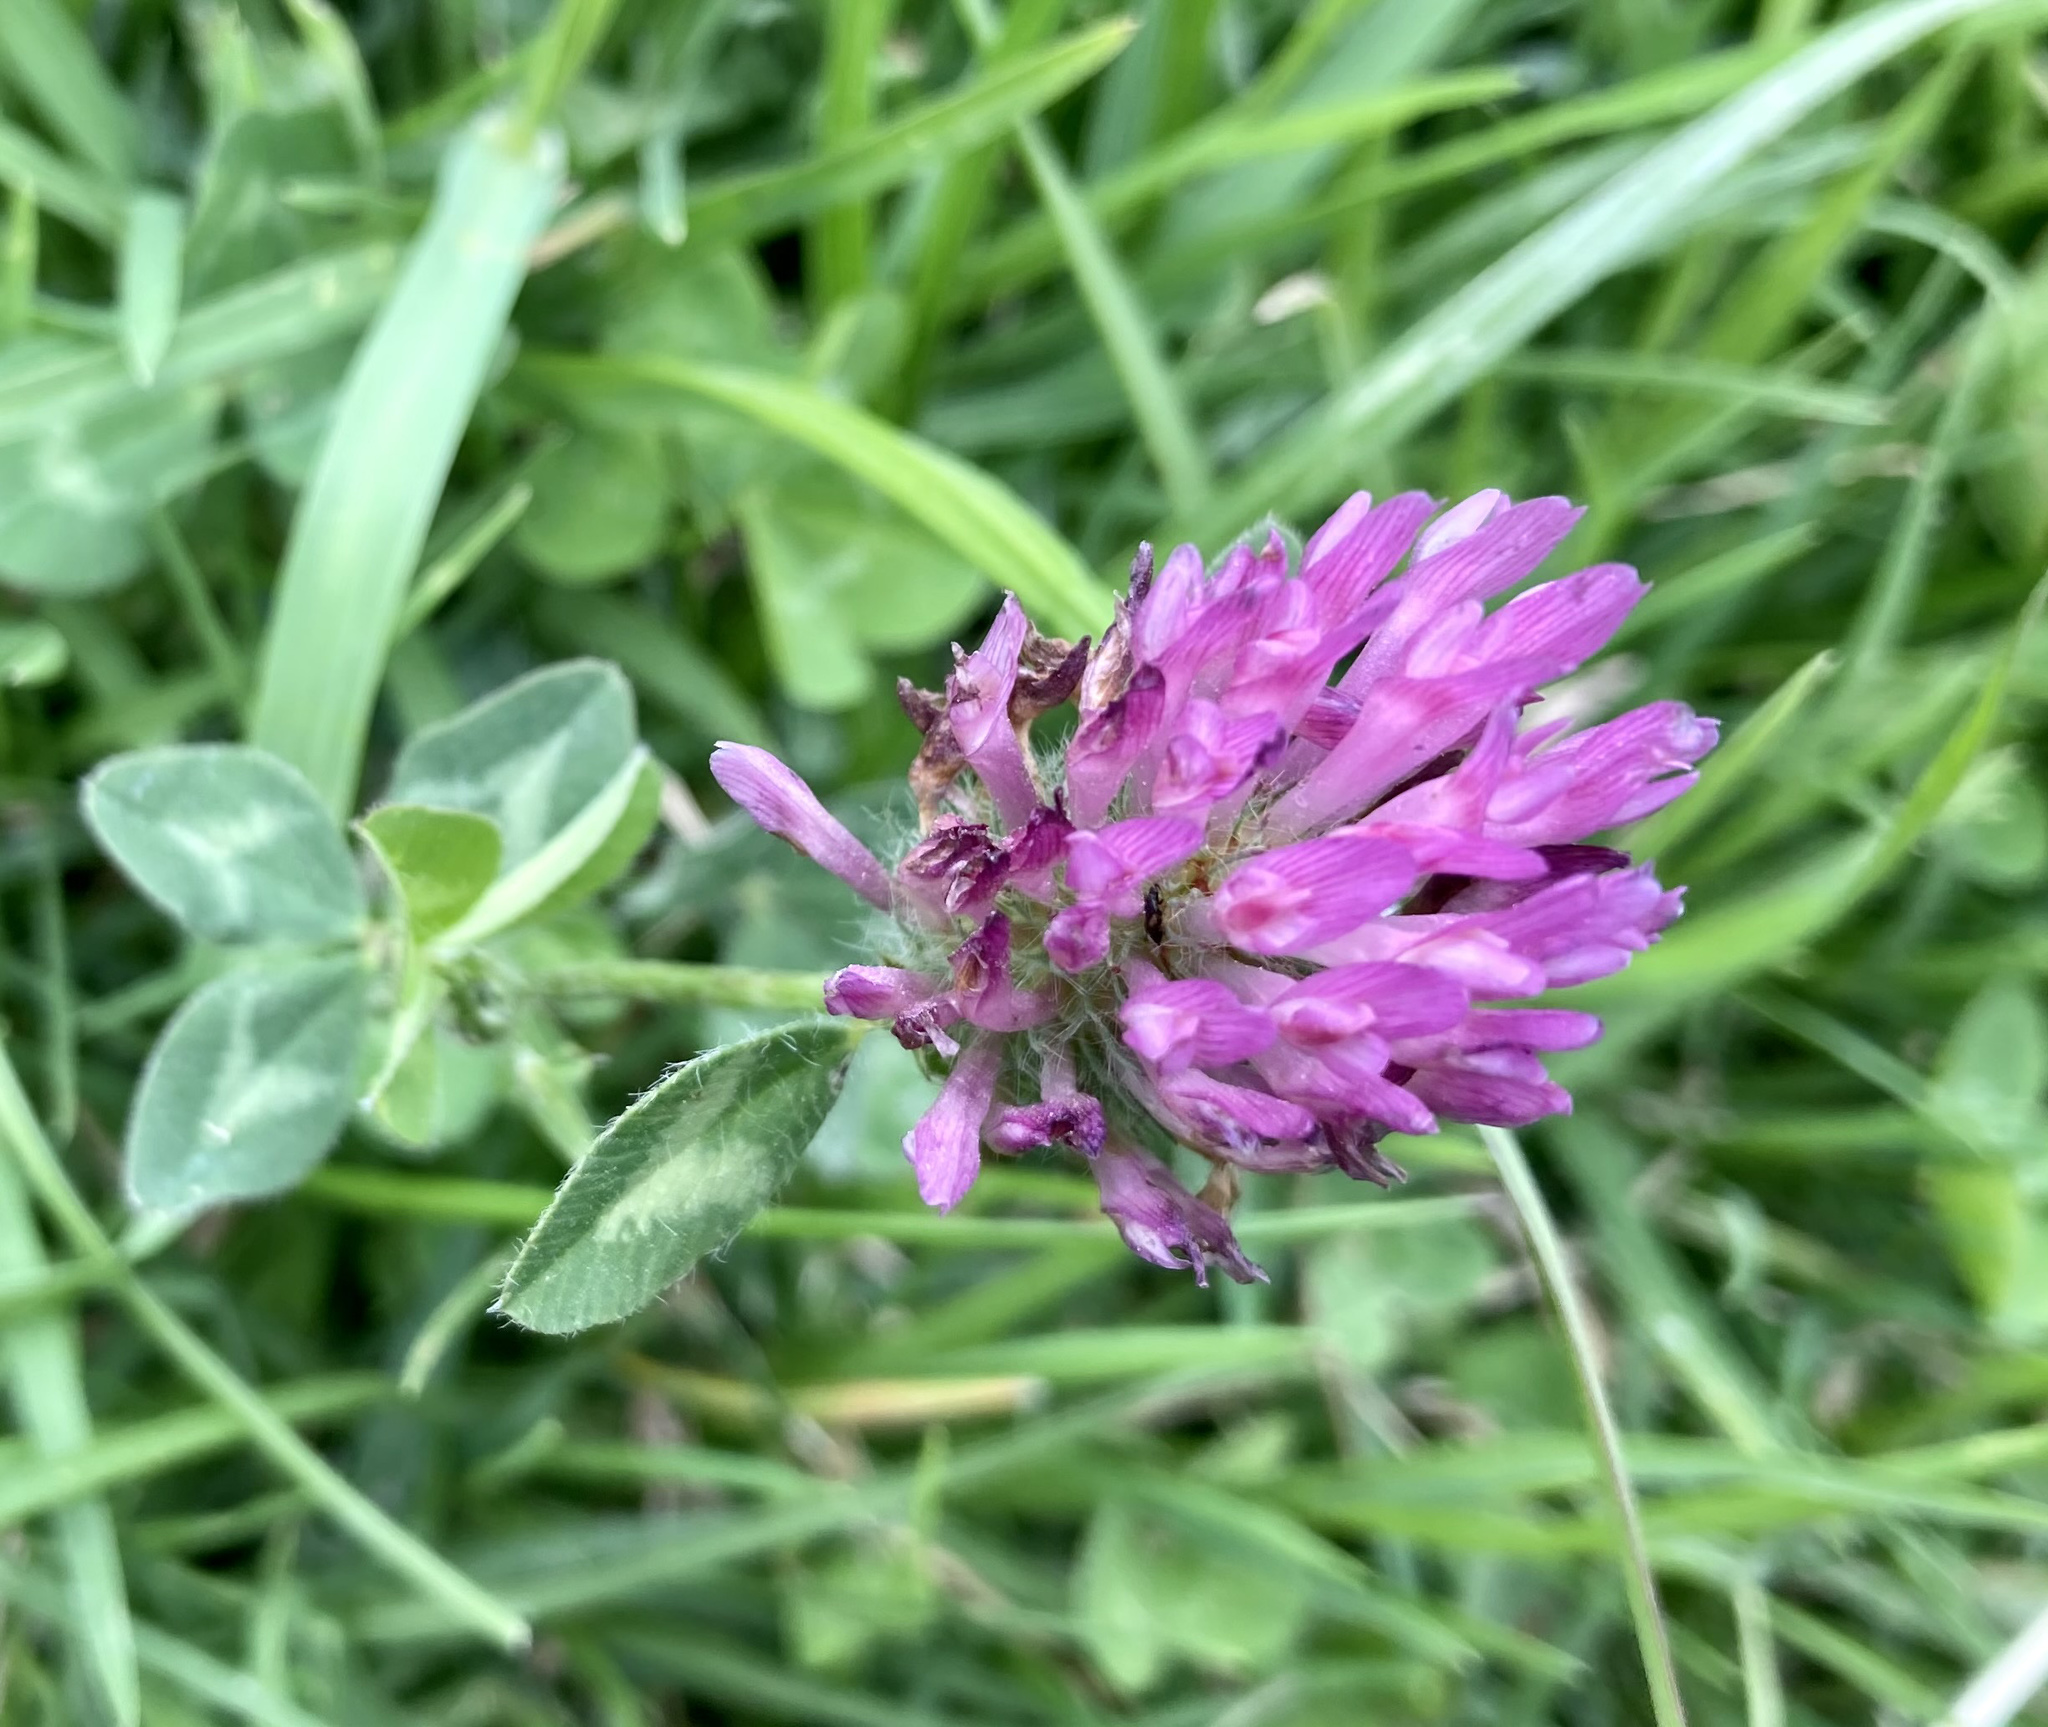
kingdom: Plantae
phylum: Tracheophyta
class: Magnoliopsida
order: Fabales
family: Fabaceae
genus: Trifolium
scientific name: Trifolium pratense
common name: Red clover
